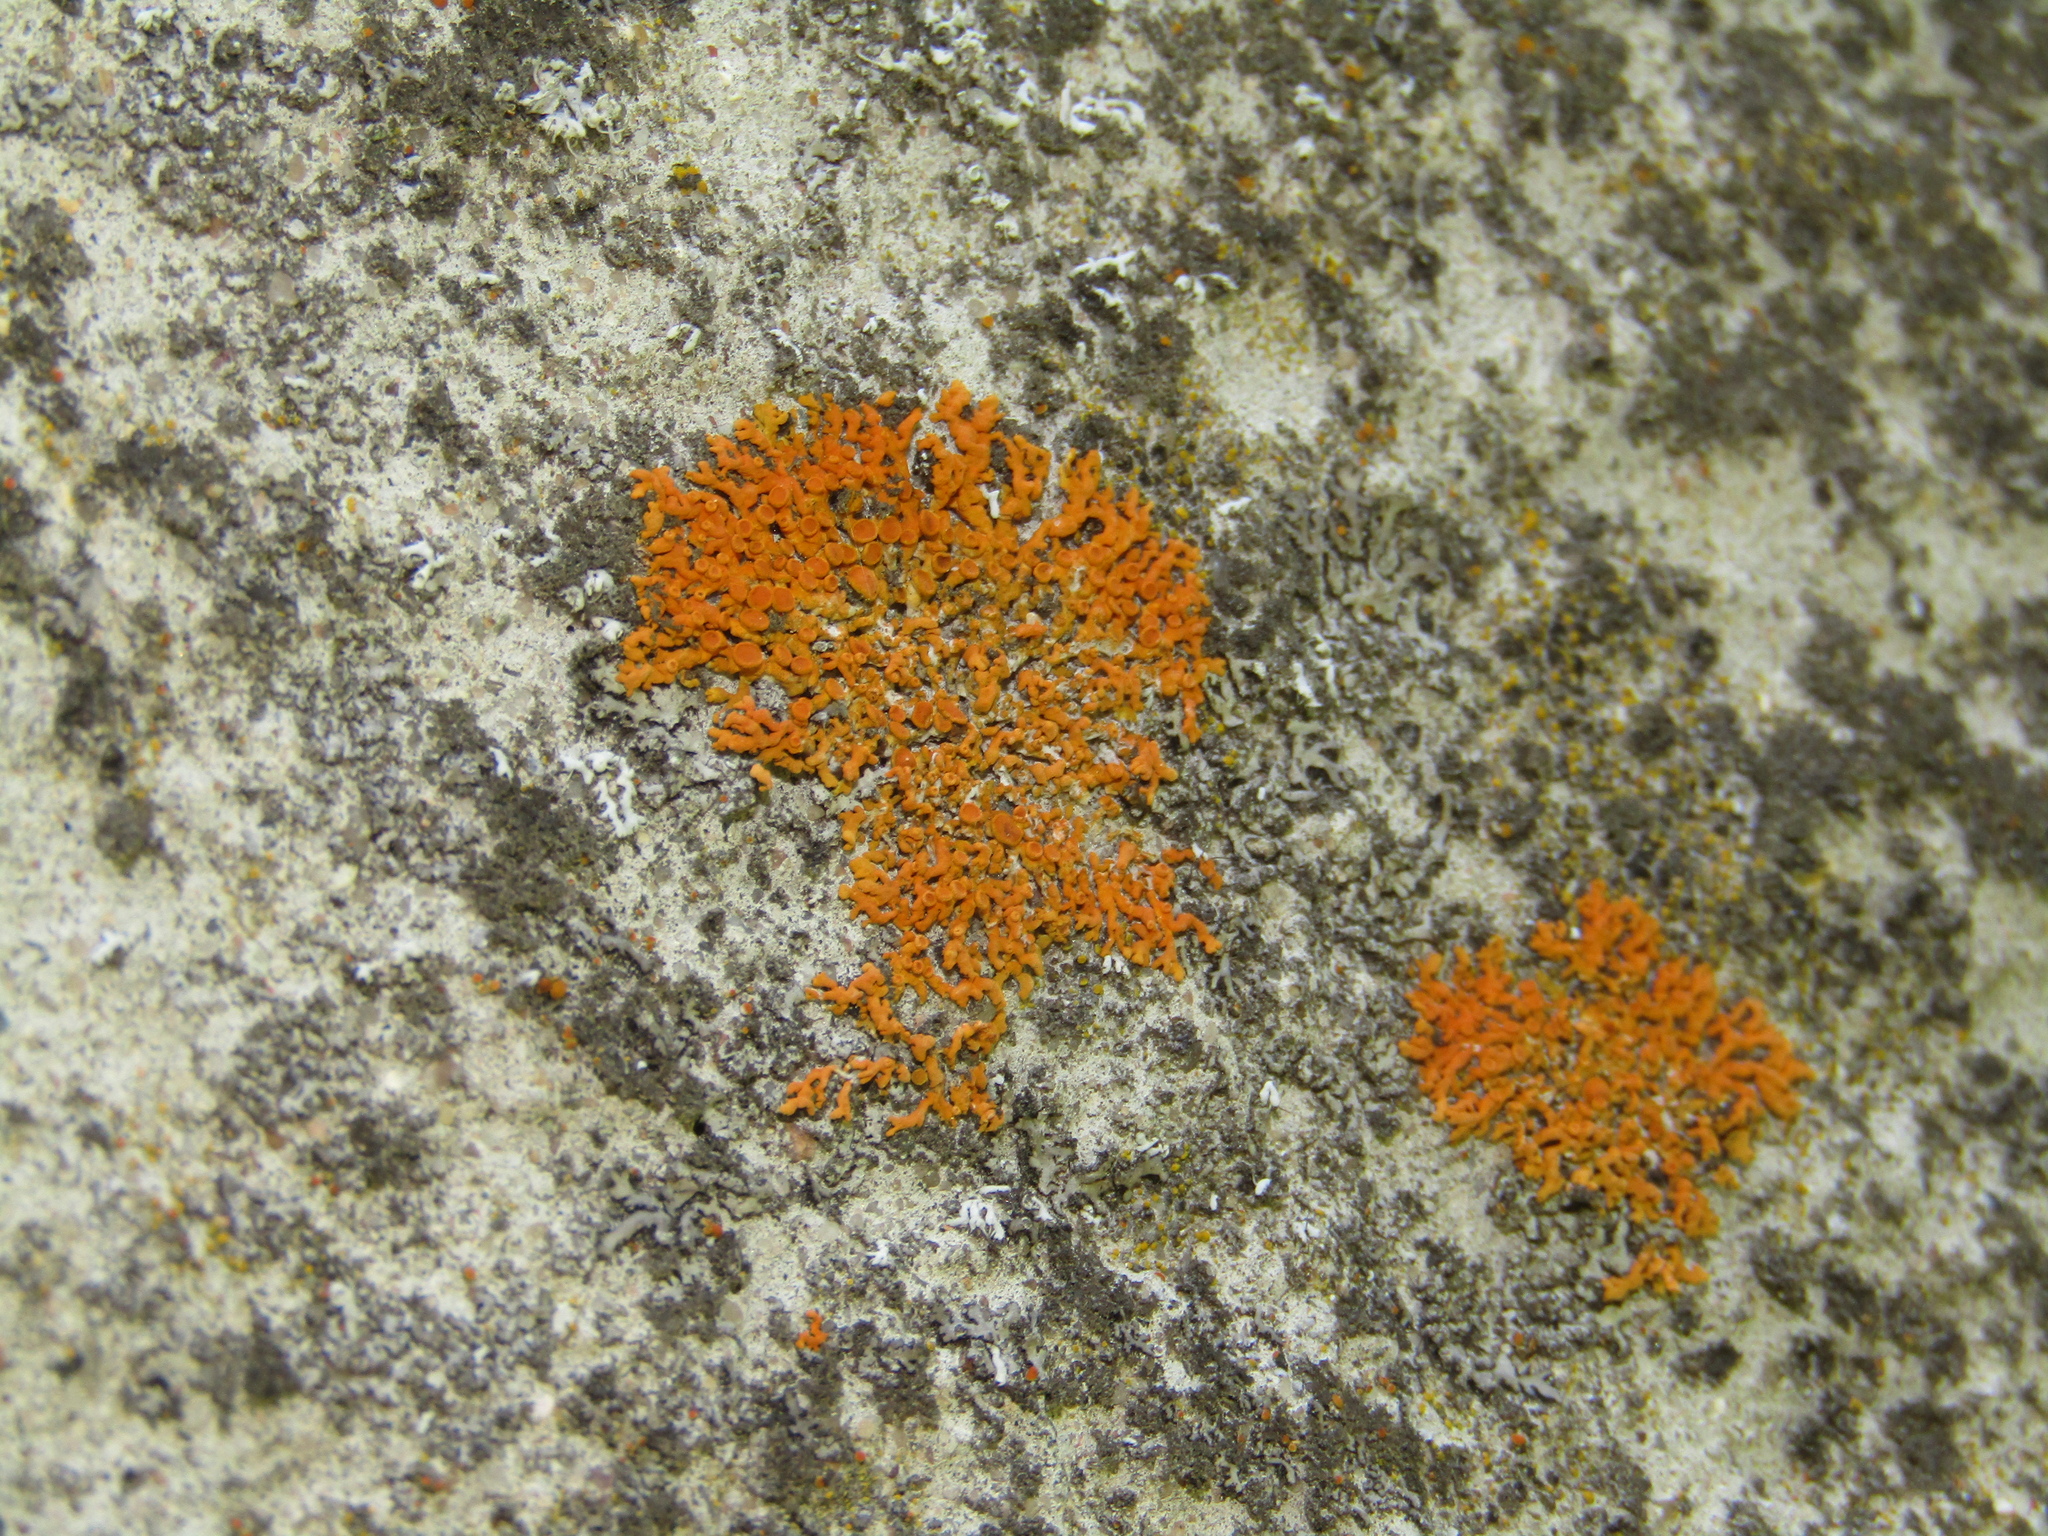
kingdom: Fungi
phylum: Ascomycota
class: Lecanoromycetes
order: Teloschistales
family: Teloschistaceae
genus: Xanthoria
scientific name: Xanthoria elegans
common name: Elegant sunburst lichen
